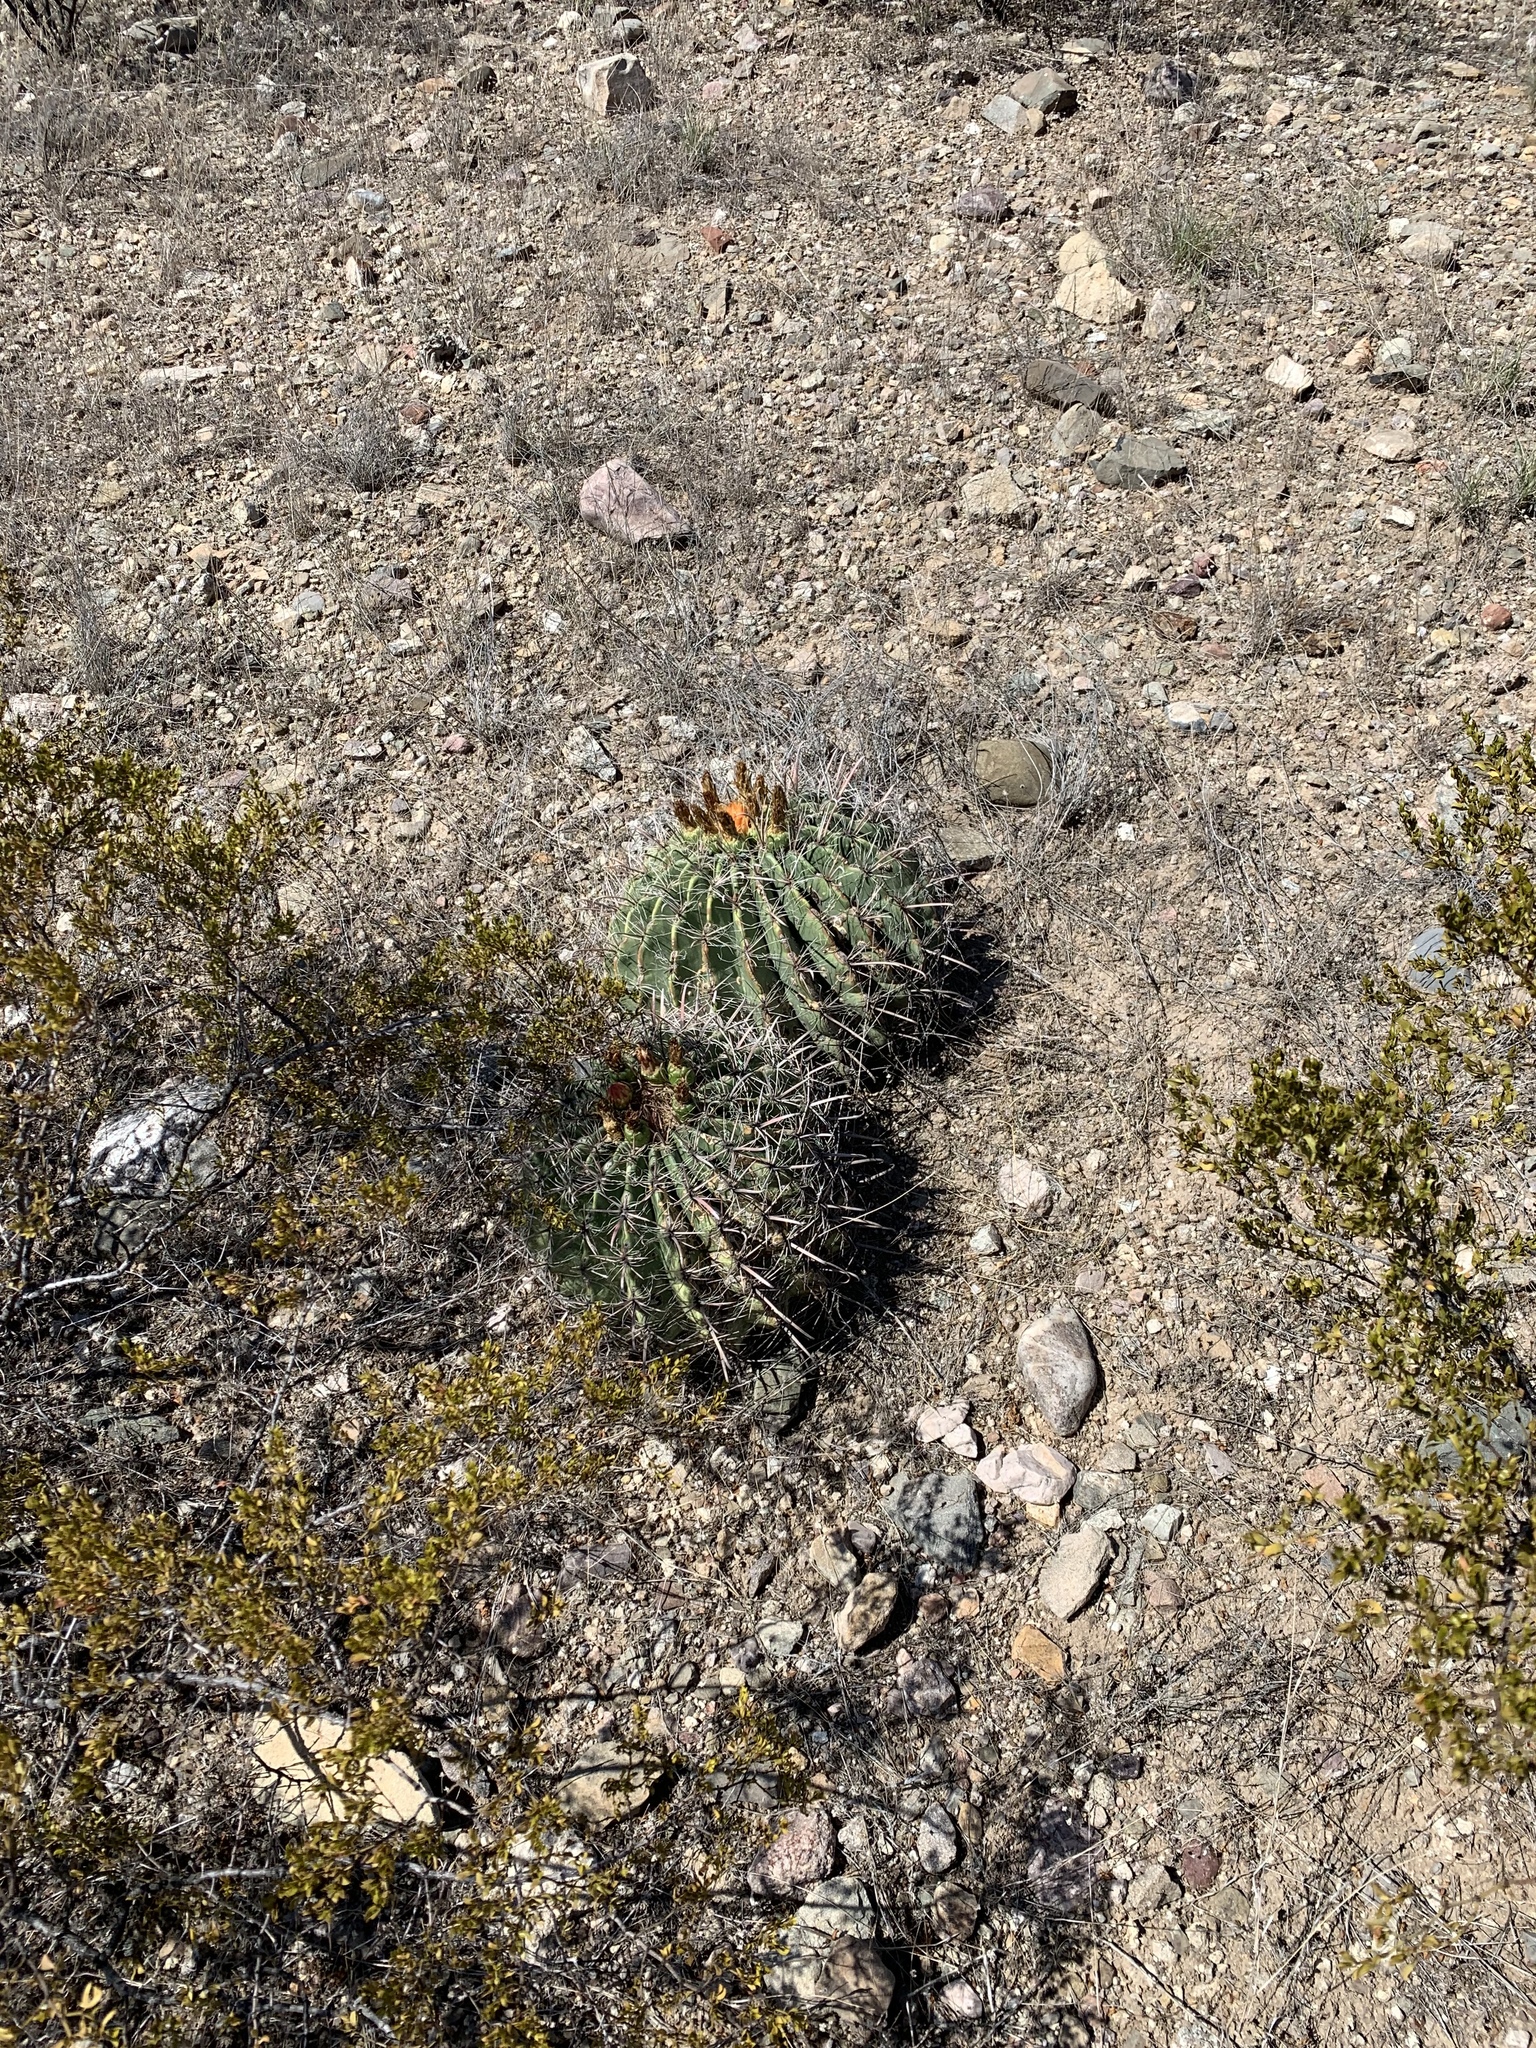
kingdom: Plantae
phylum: Tracheophyta
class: Magnoliopsida
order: Caryophyllales
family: Cactaceae
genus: Ferocactus
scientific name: Ferocactus wislizeni
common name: Candy barrel cactus
